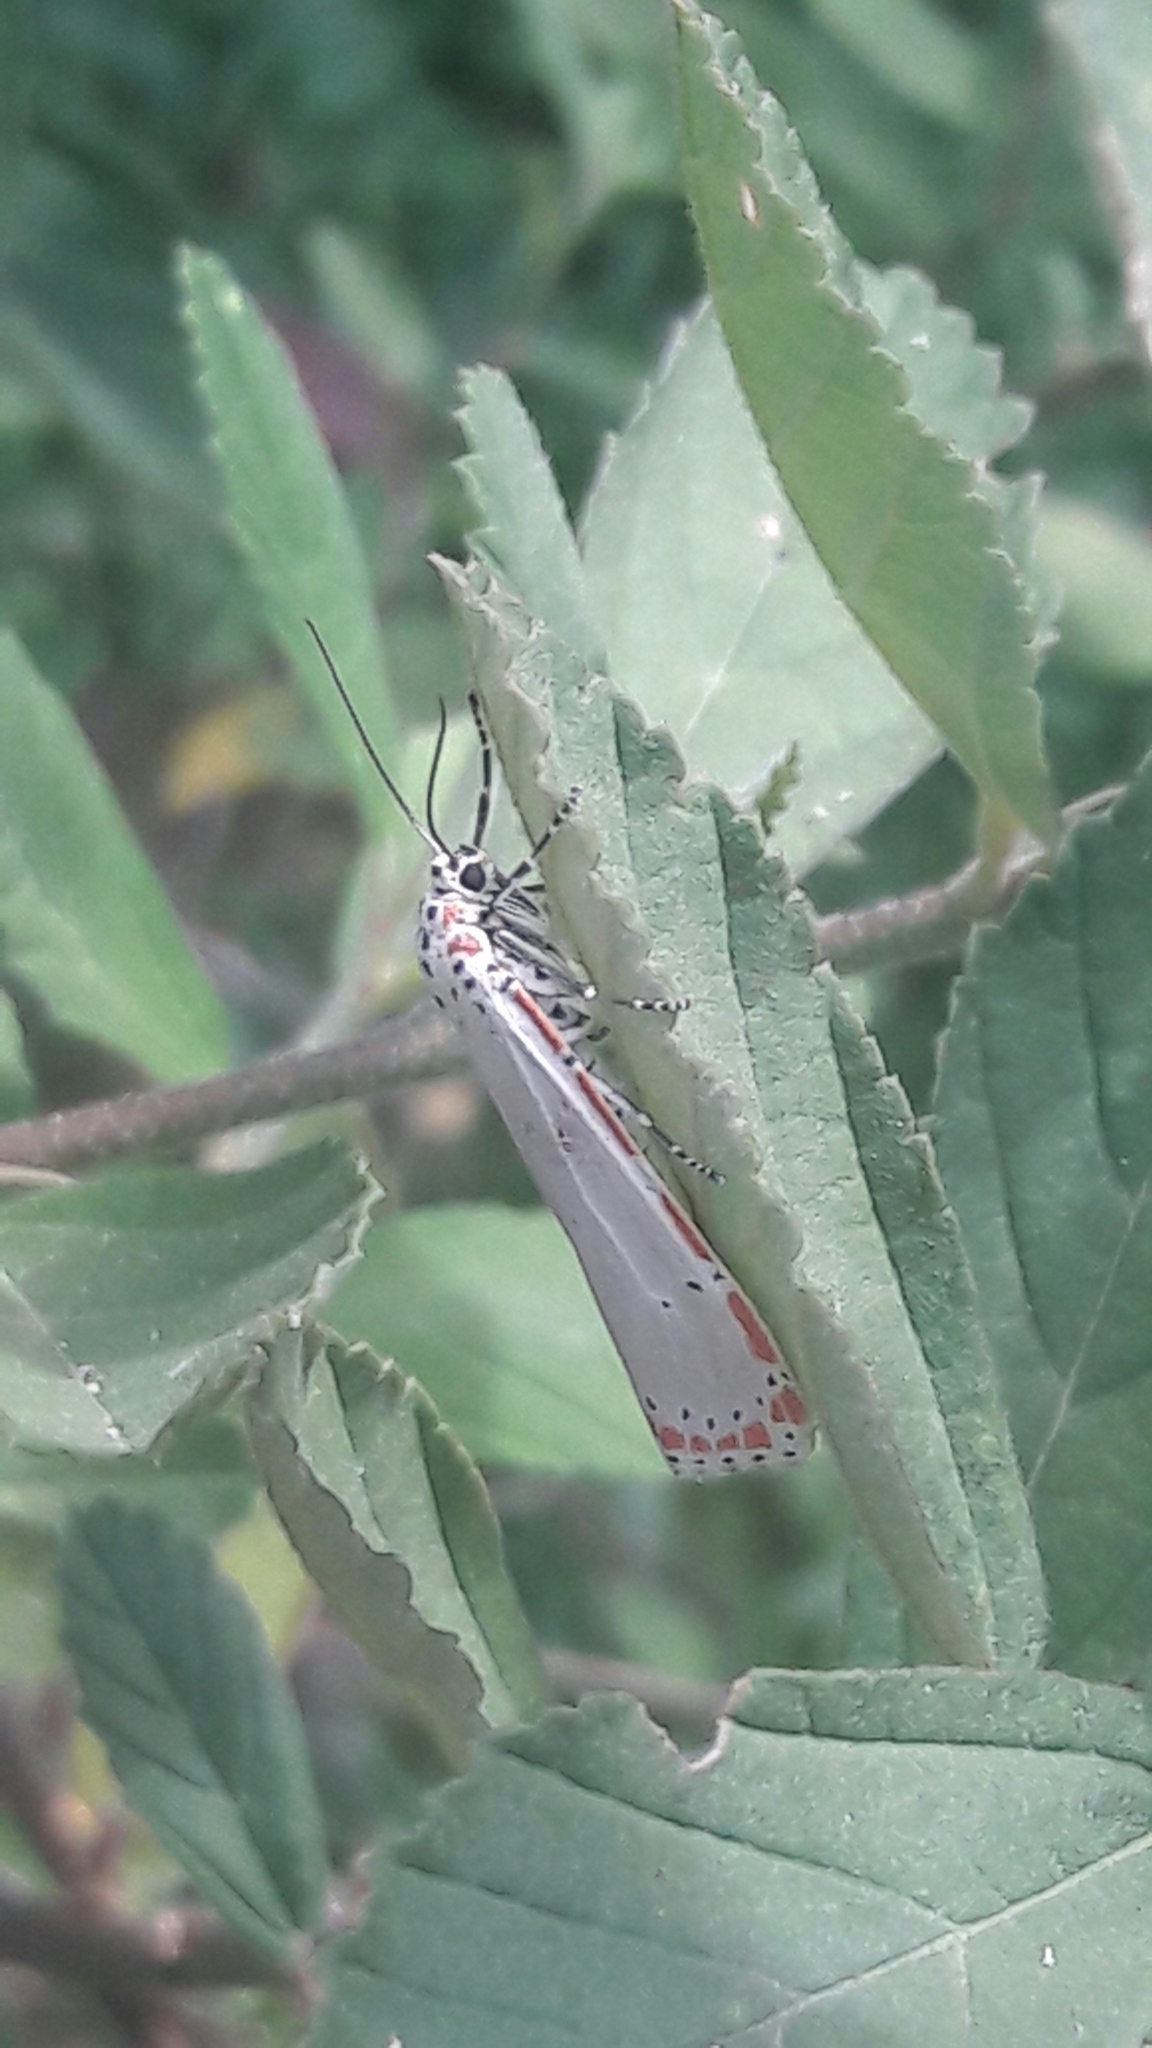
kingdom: Animalia
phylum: Arthropoda
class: Insecta
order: Lepidoptera
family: Erebidae
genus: Utetheisa
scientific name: Utetheisa ornatrix
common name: Beautiful utetheisa
